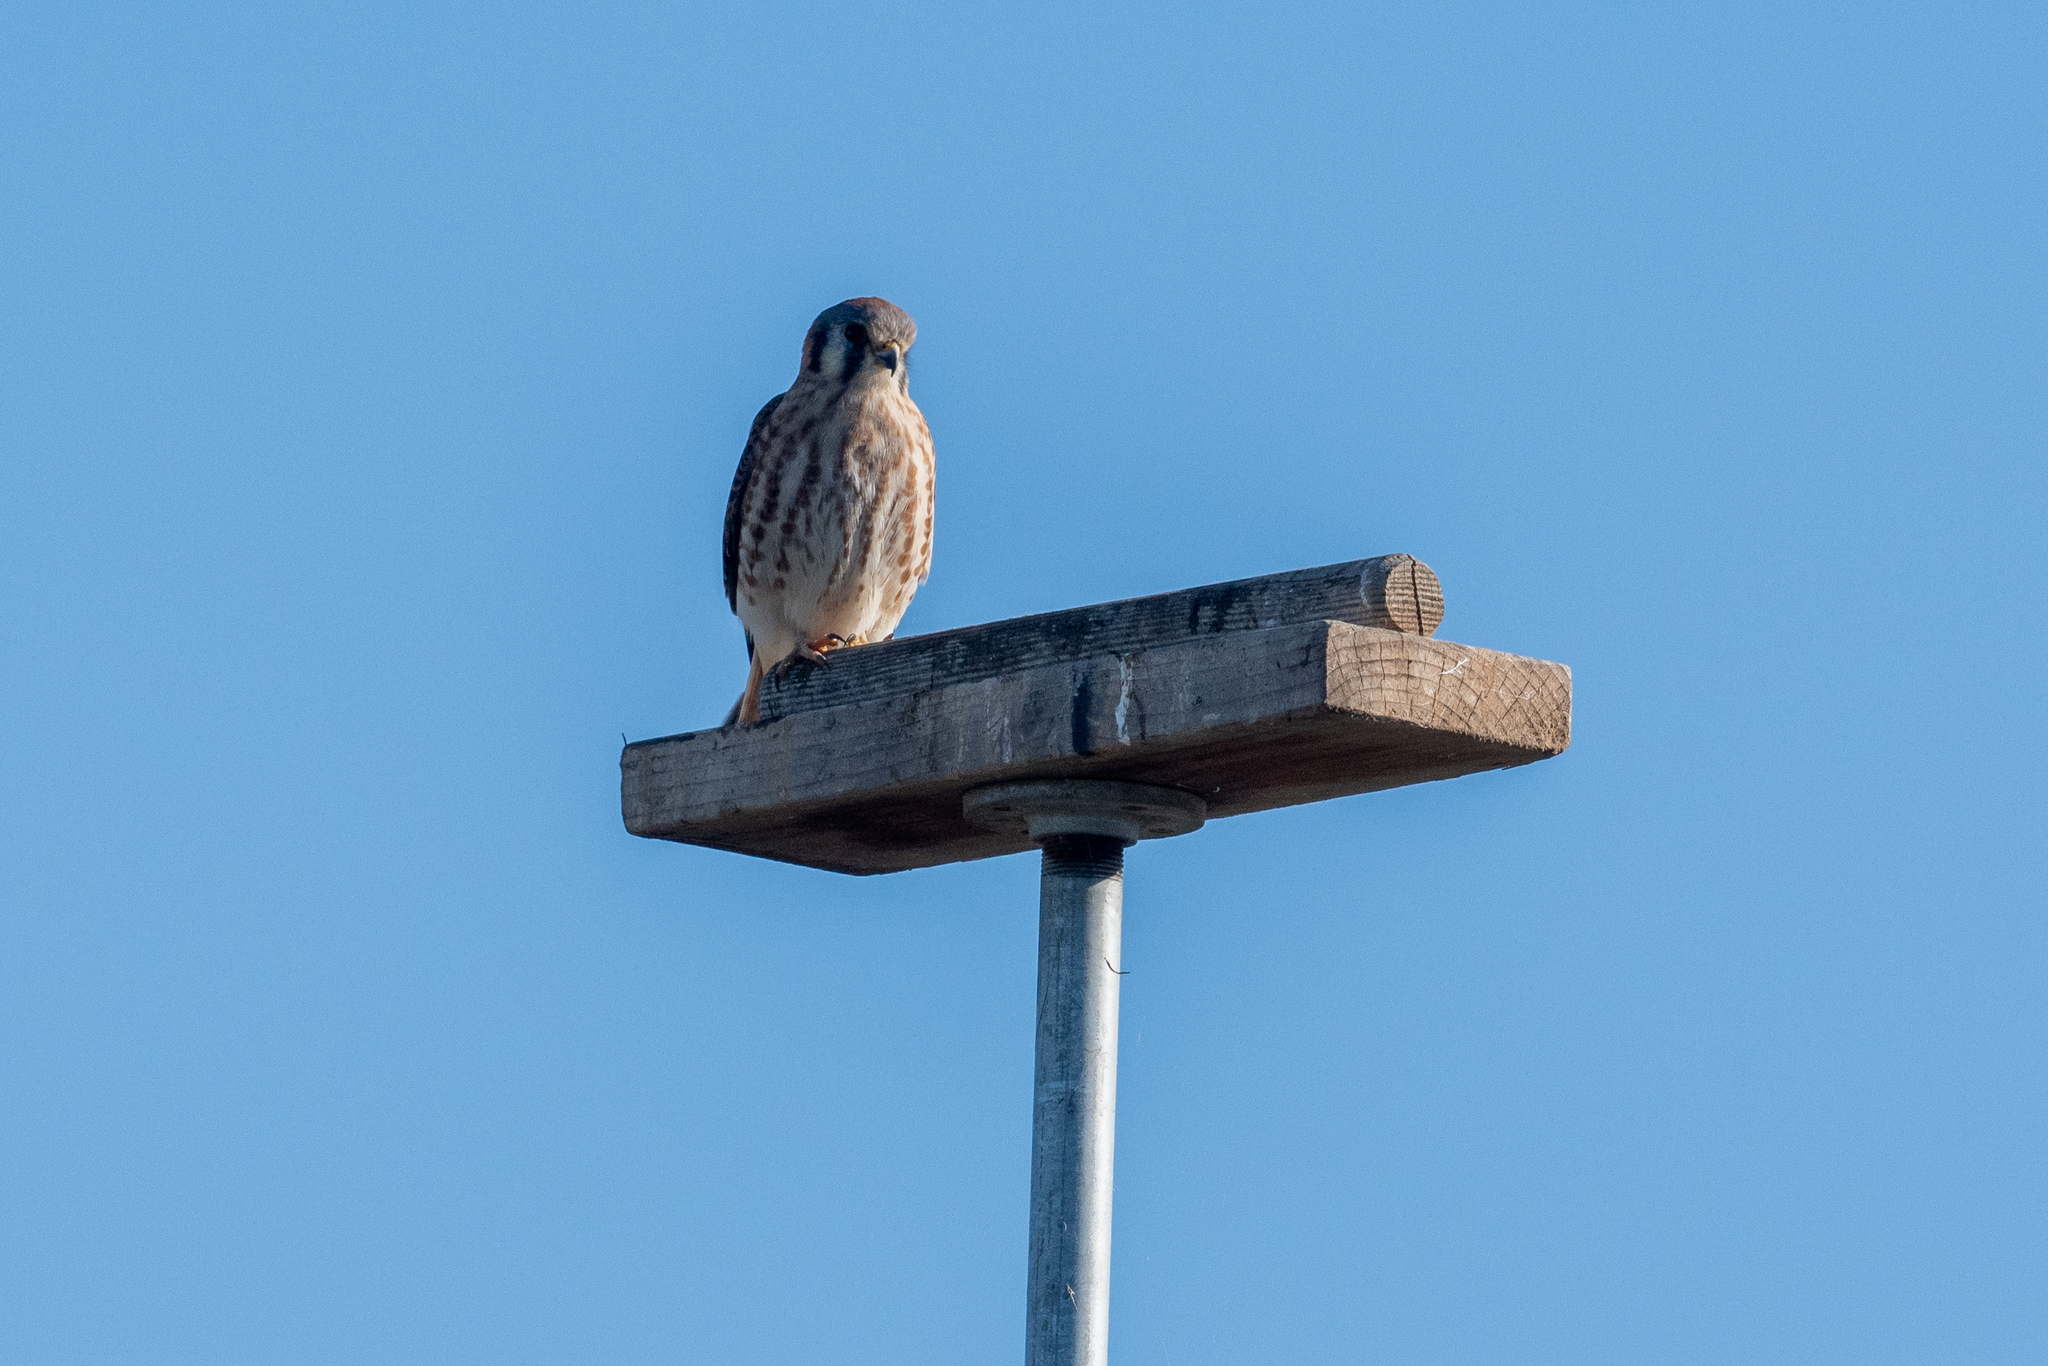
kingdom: Animalia
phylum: Chordata
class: Aves
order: Falconiformes
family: Falconidae
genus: Falco
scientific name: Falco sparverius
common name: American kestrel
